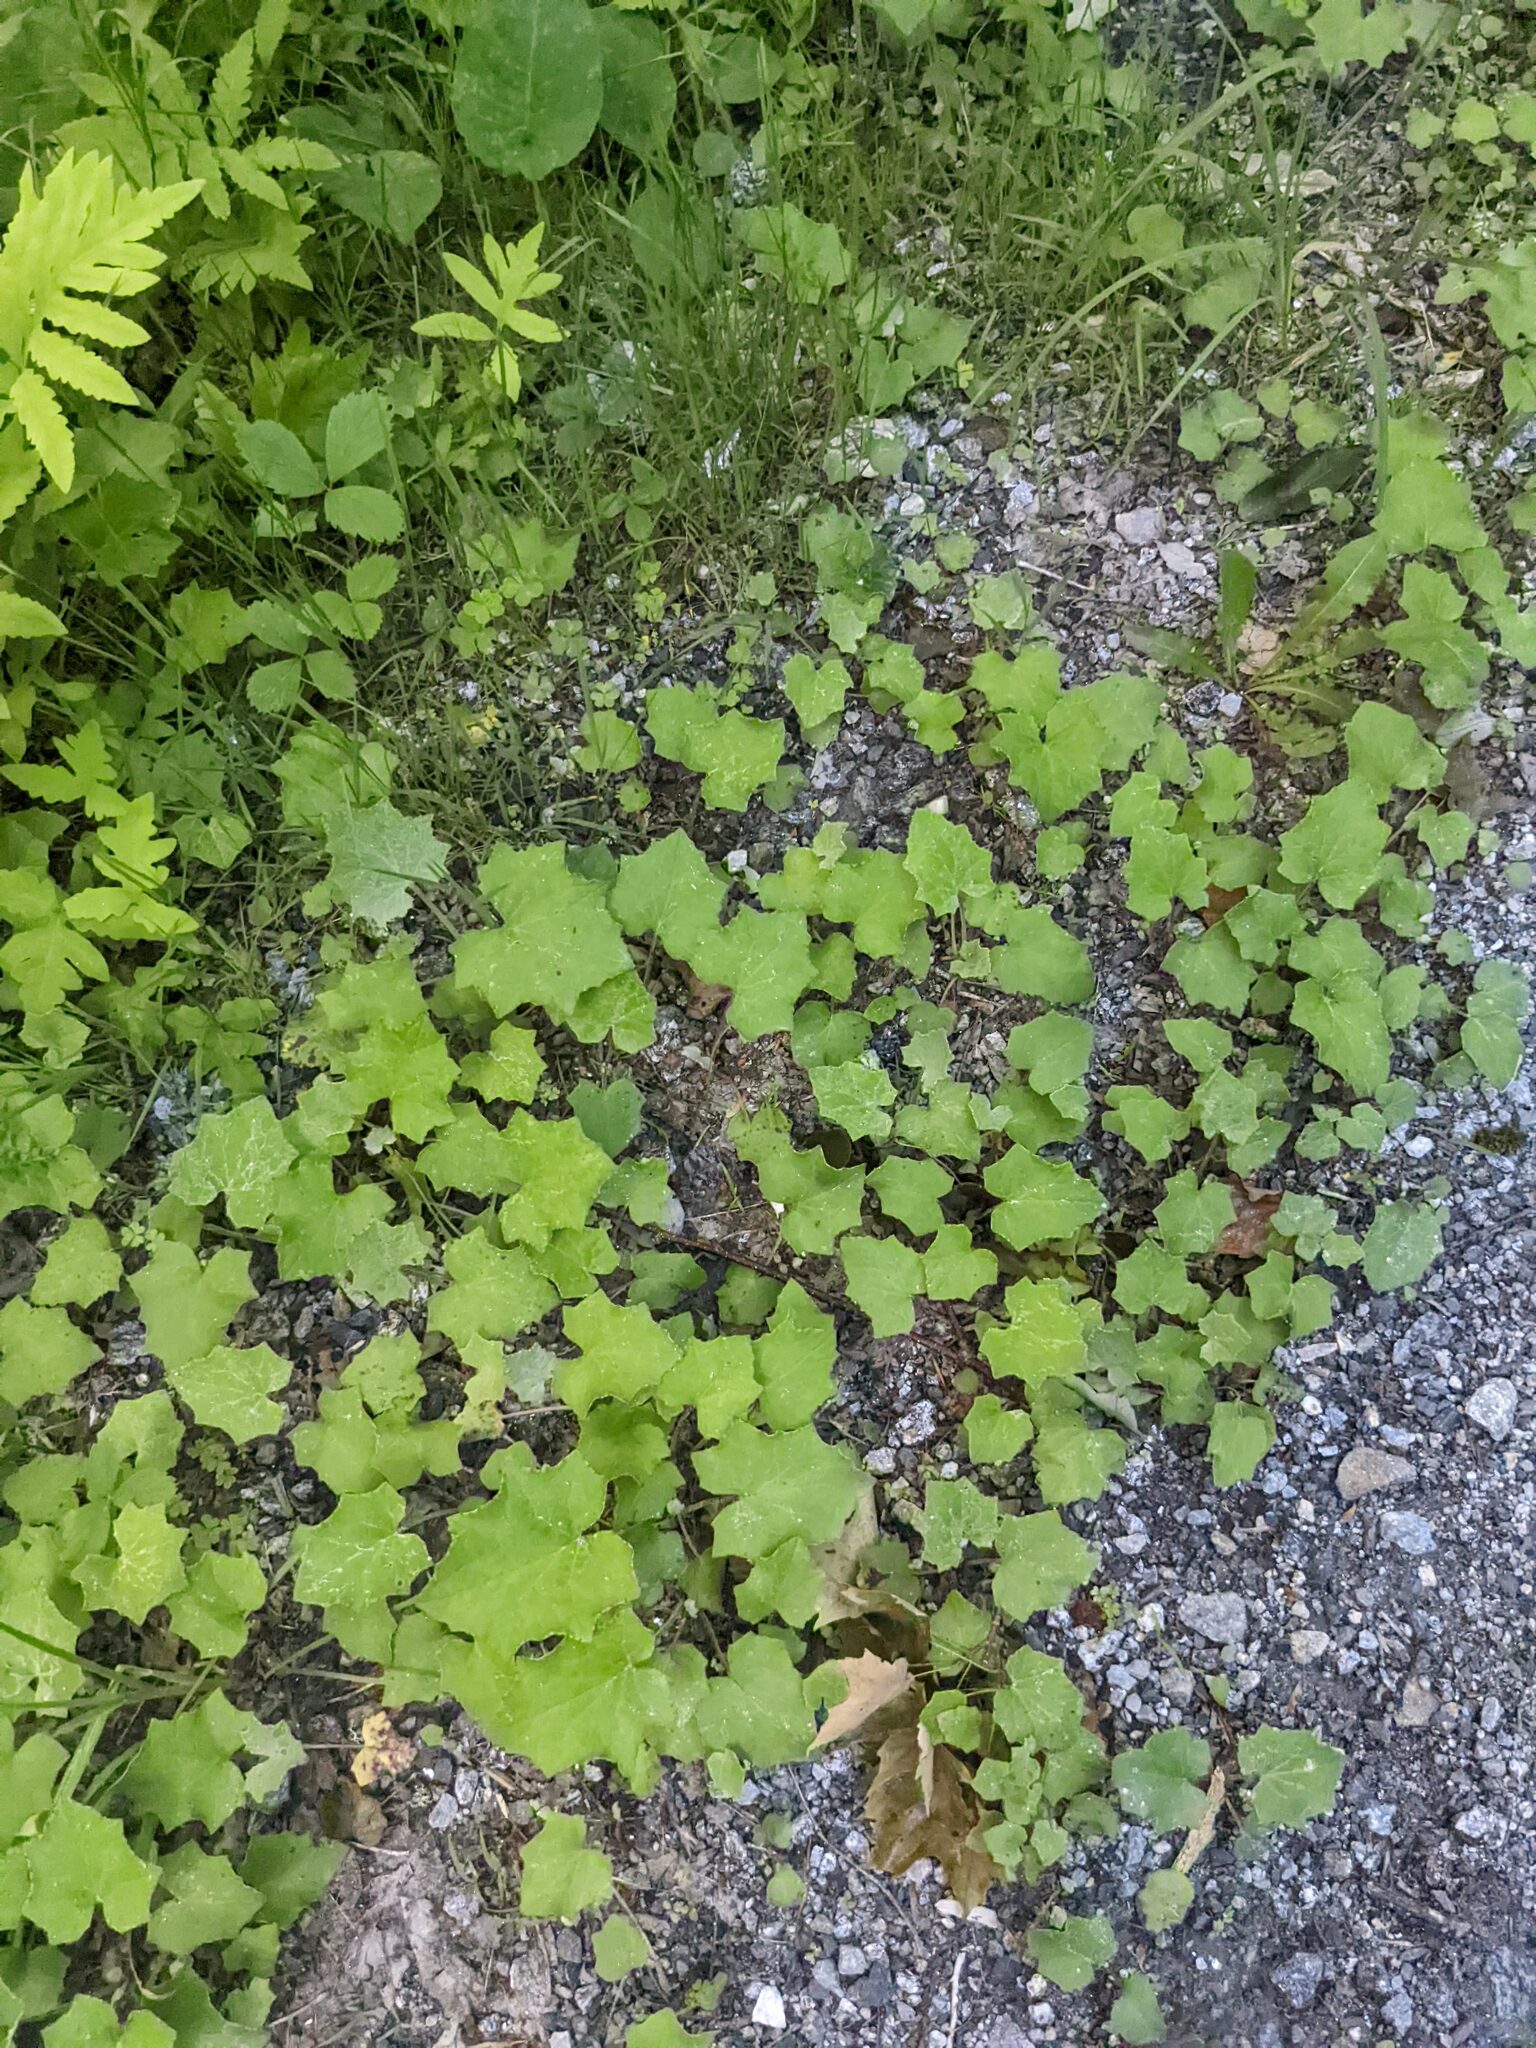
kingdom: Plantae
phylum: Tracheophyta
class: Magnoliopsida
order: Asterales
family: Asteraceae
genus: Tussilago
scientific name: Tussilago farfara
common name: Coltsfoot
